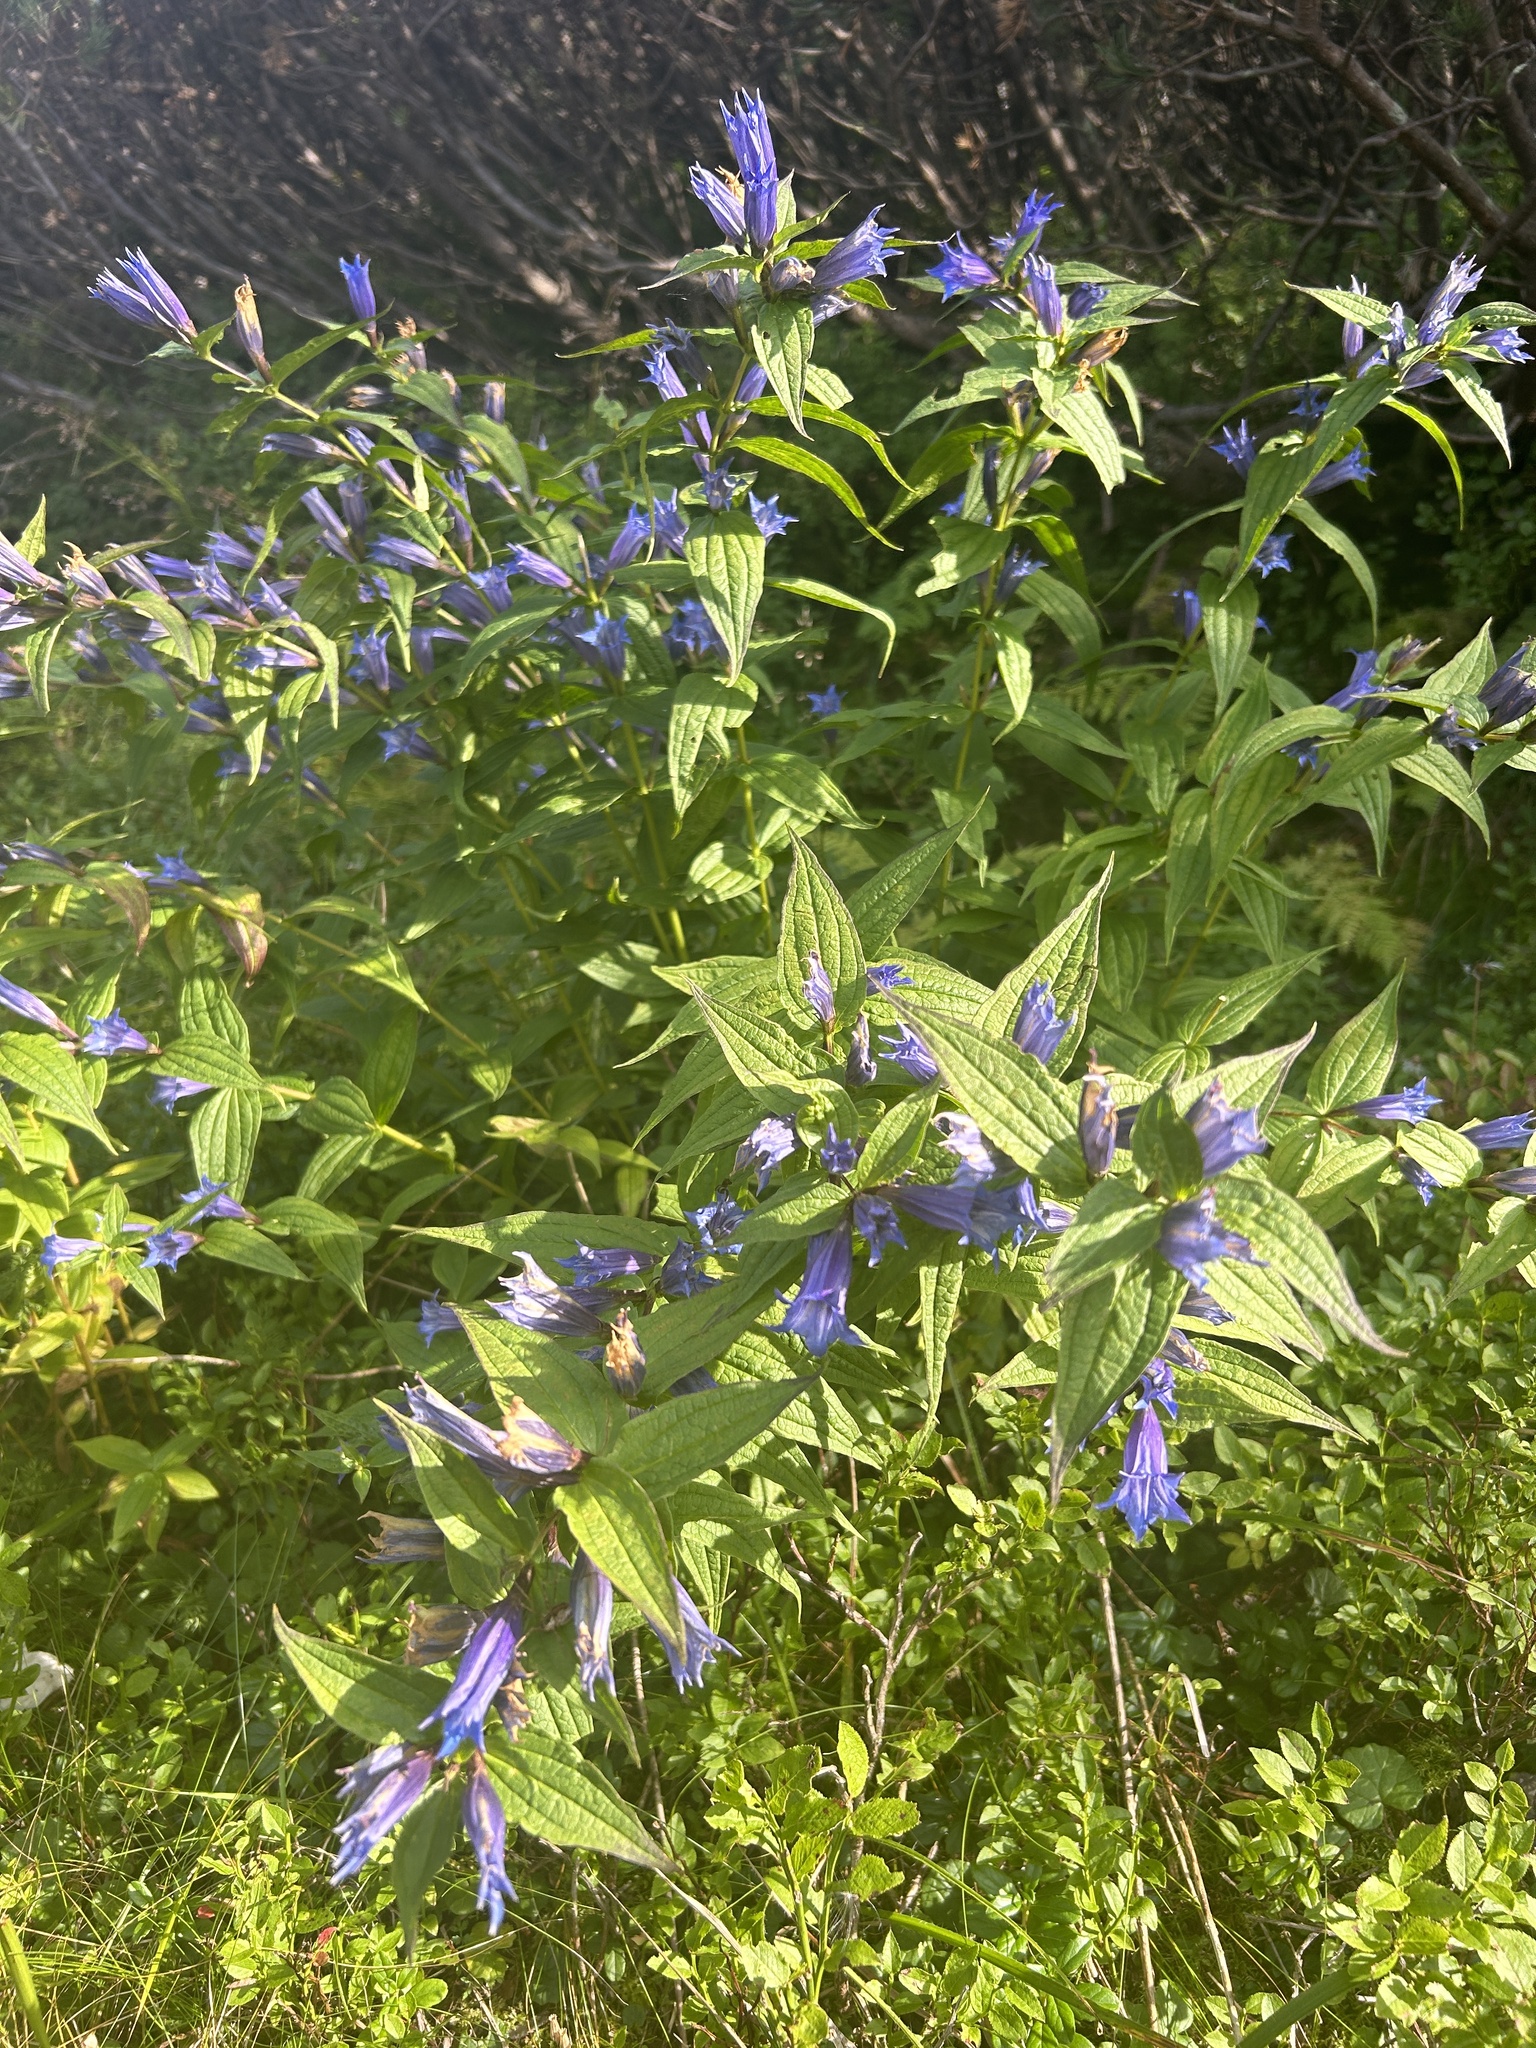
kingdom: Plantae
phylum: Tracheophyta
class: Magnoliopsida
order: Gentianales
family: Gentianaceae
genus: Gentiana
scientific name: Gentiana asclepiadea
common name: Willow gentian
